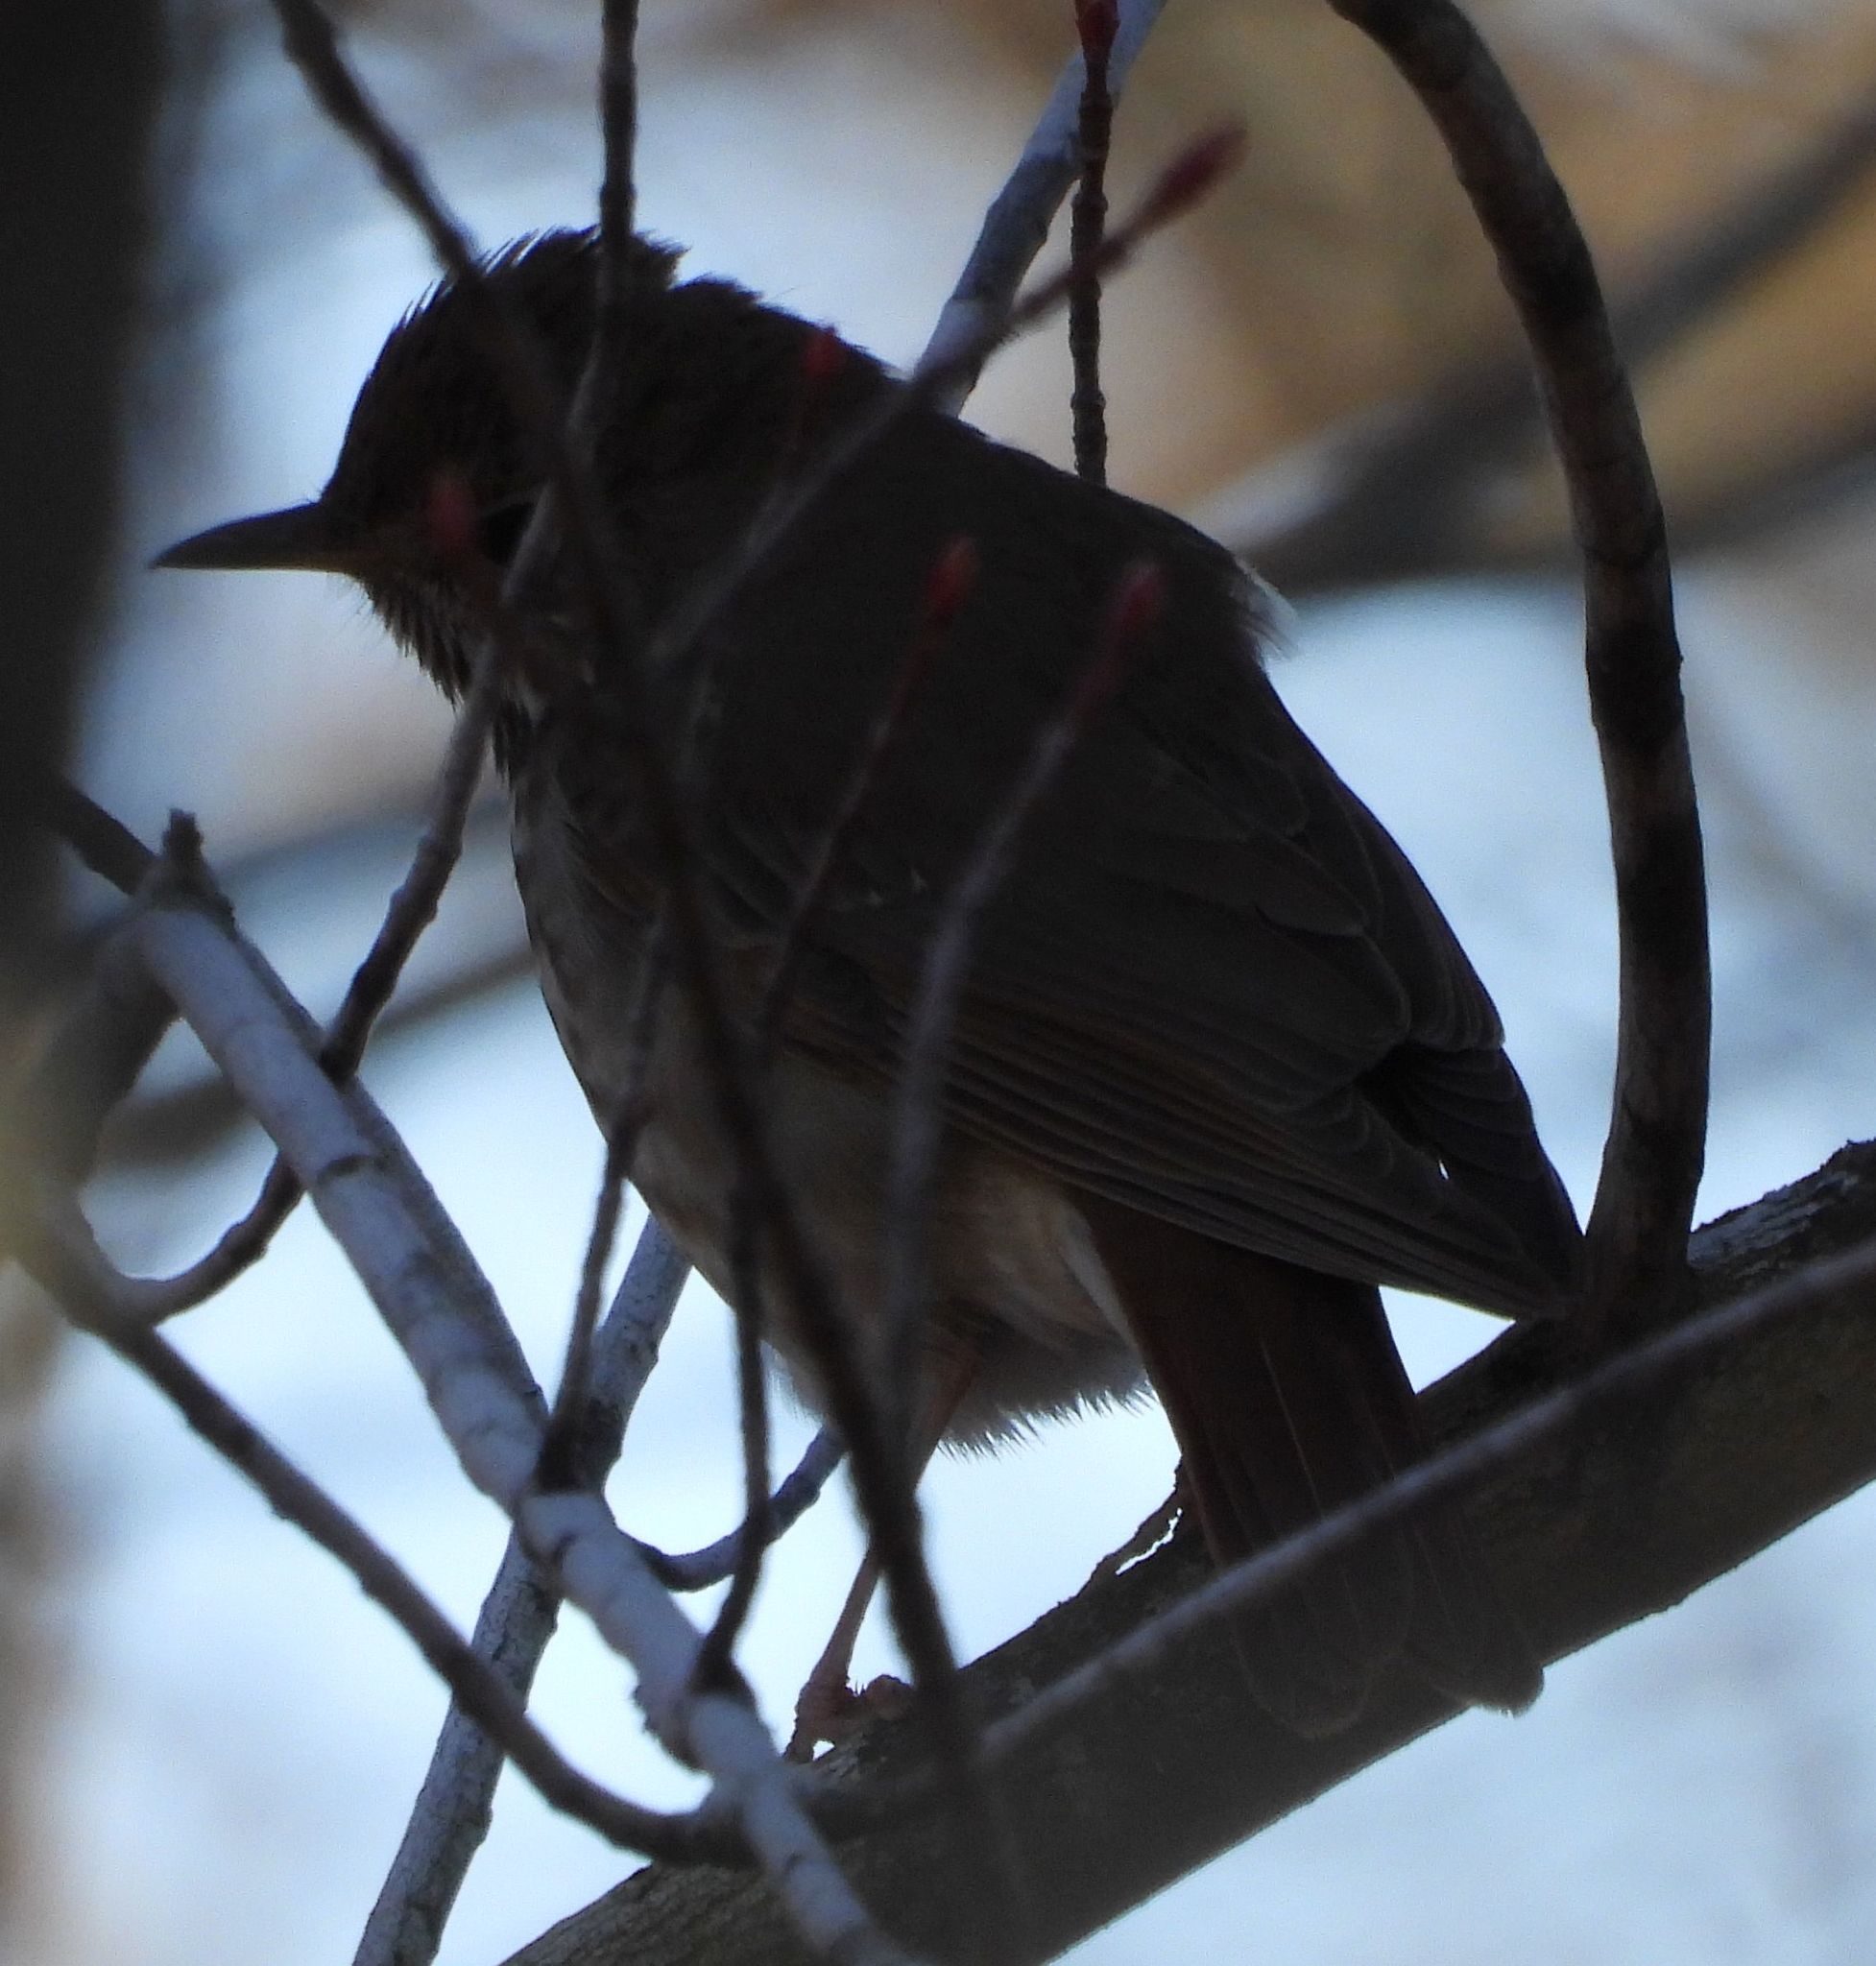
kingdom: Animalia
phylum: Chordata
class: Aves
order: Passeriformes
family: Turdidae
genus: Catharus
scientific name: Catharus guttatus
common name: Hermit thrush
